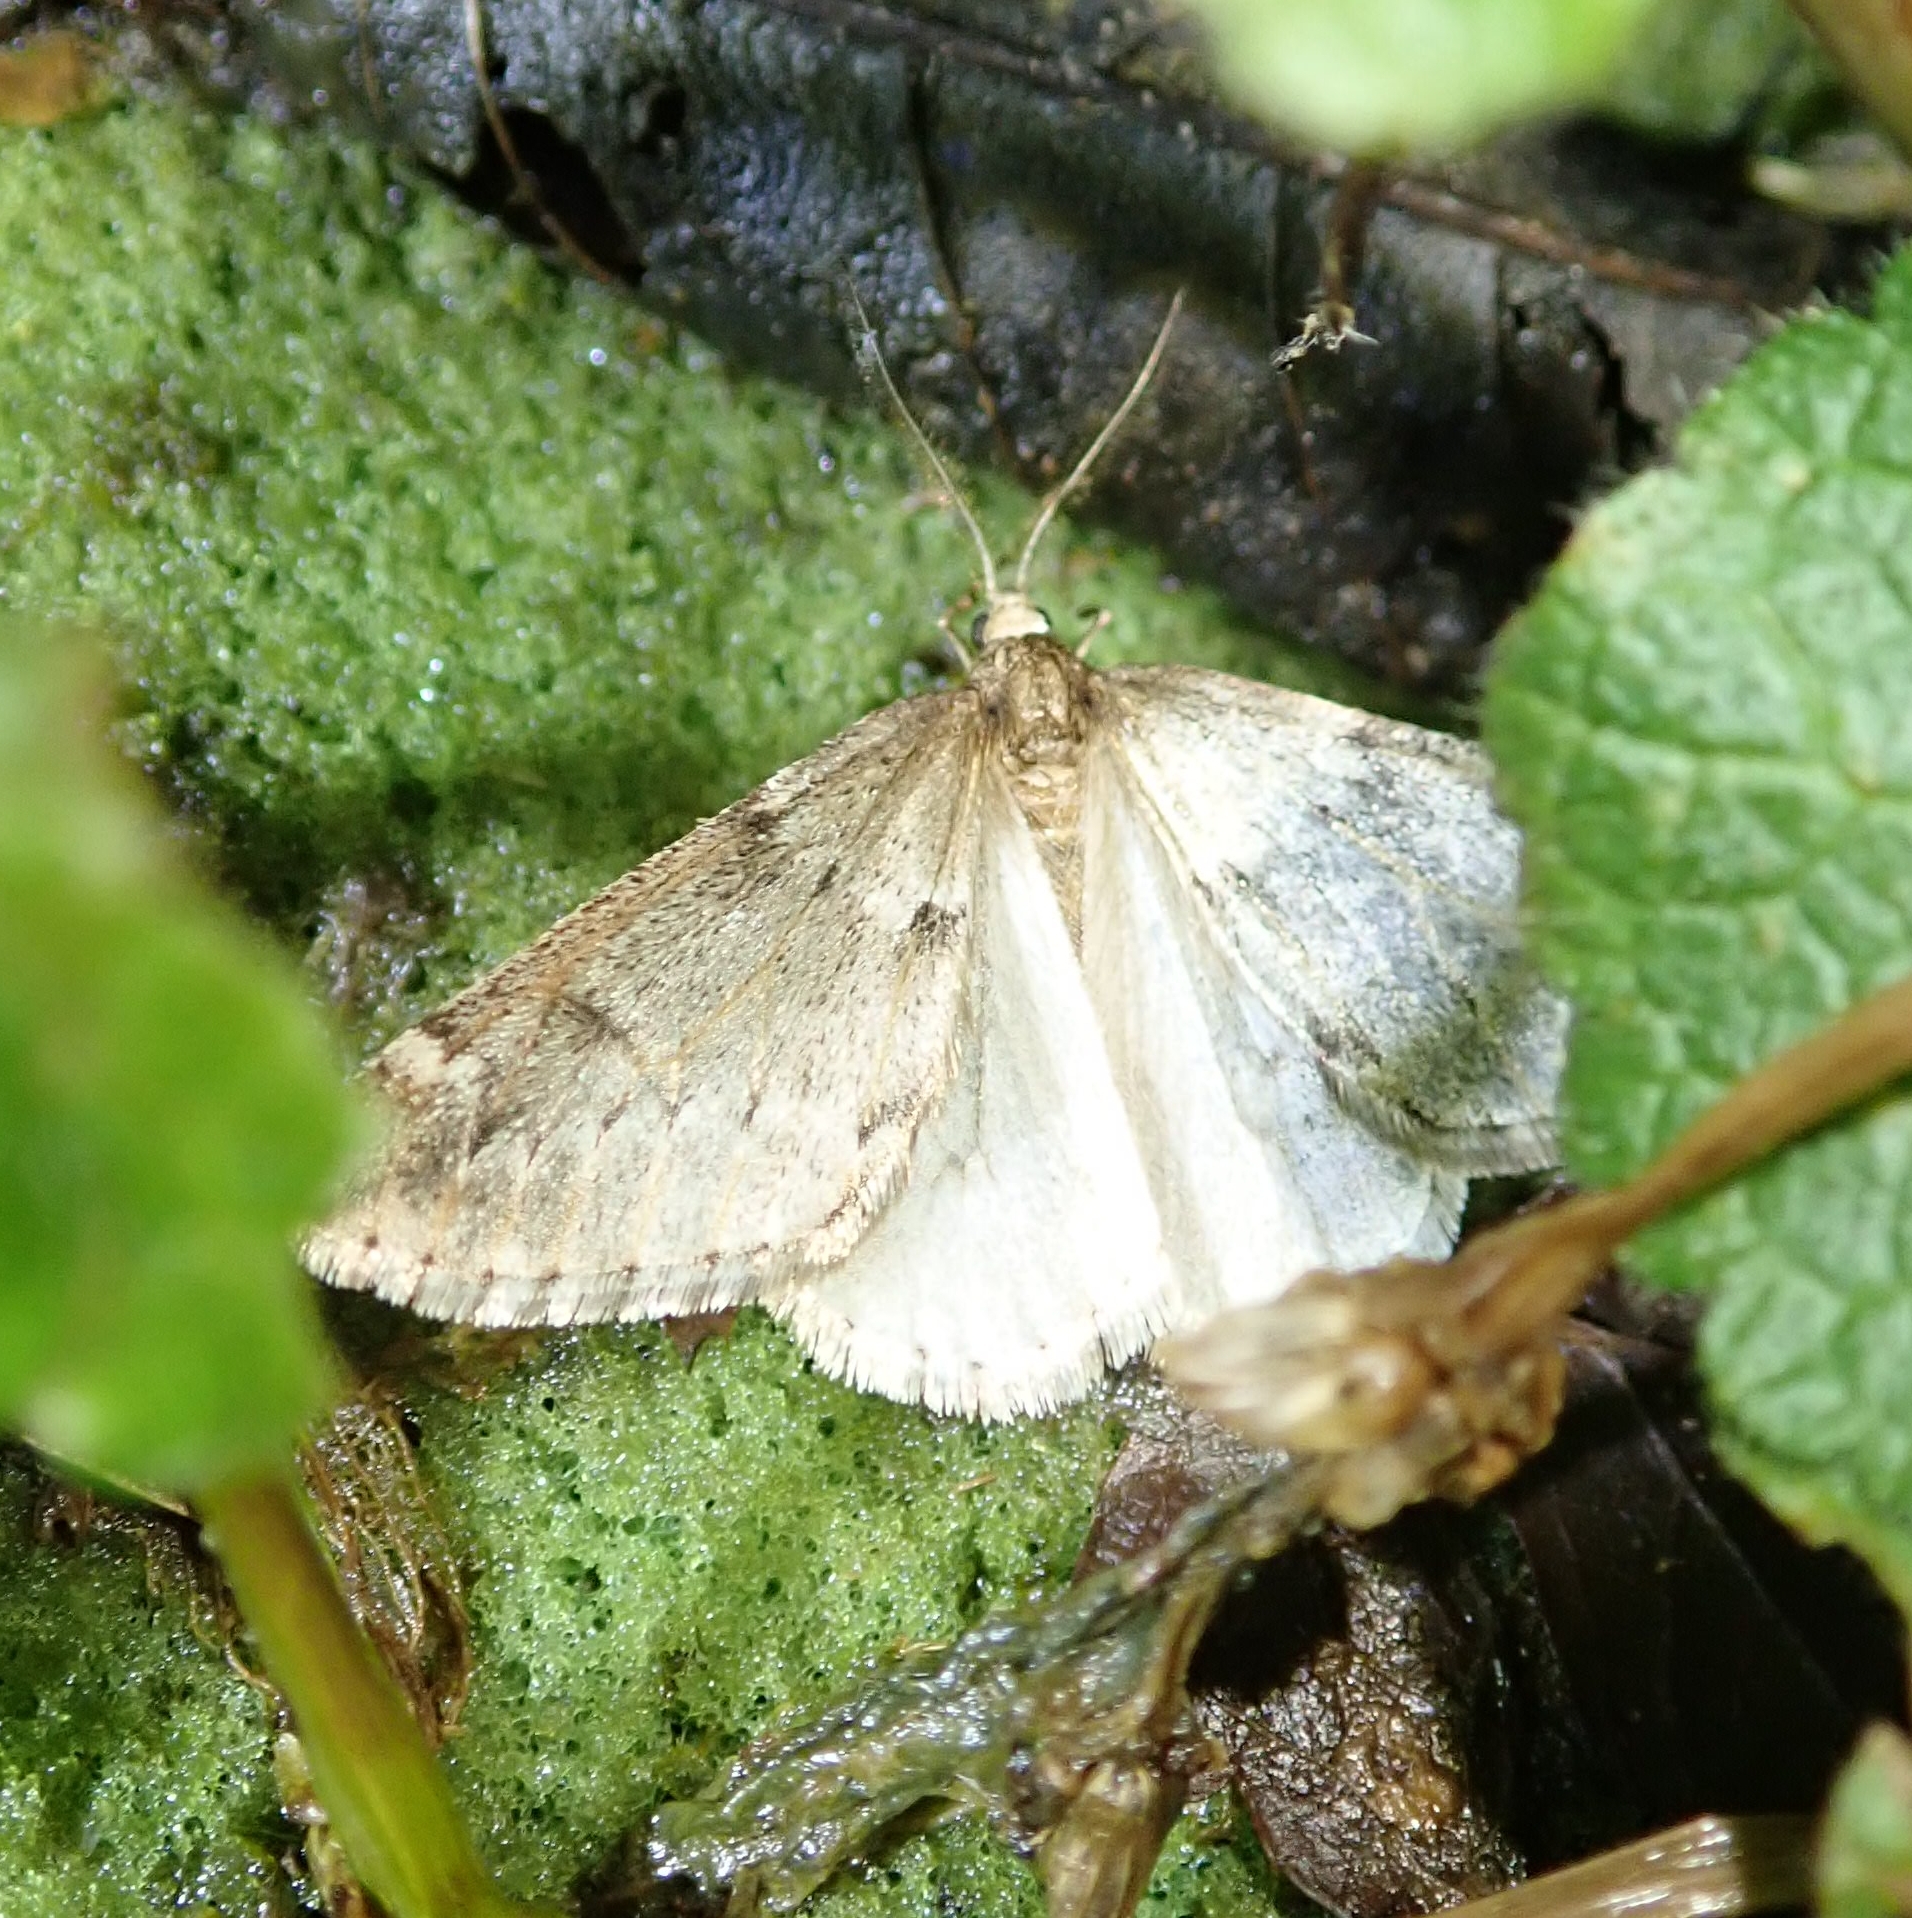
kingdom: Animalia
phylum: Arthropoda
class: Insecta
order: Lepidoptera
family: Geometridae
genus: Alsophila
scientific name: Alsophila aescularia
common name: March moth
